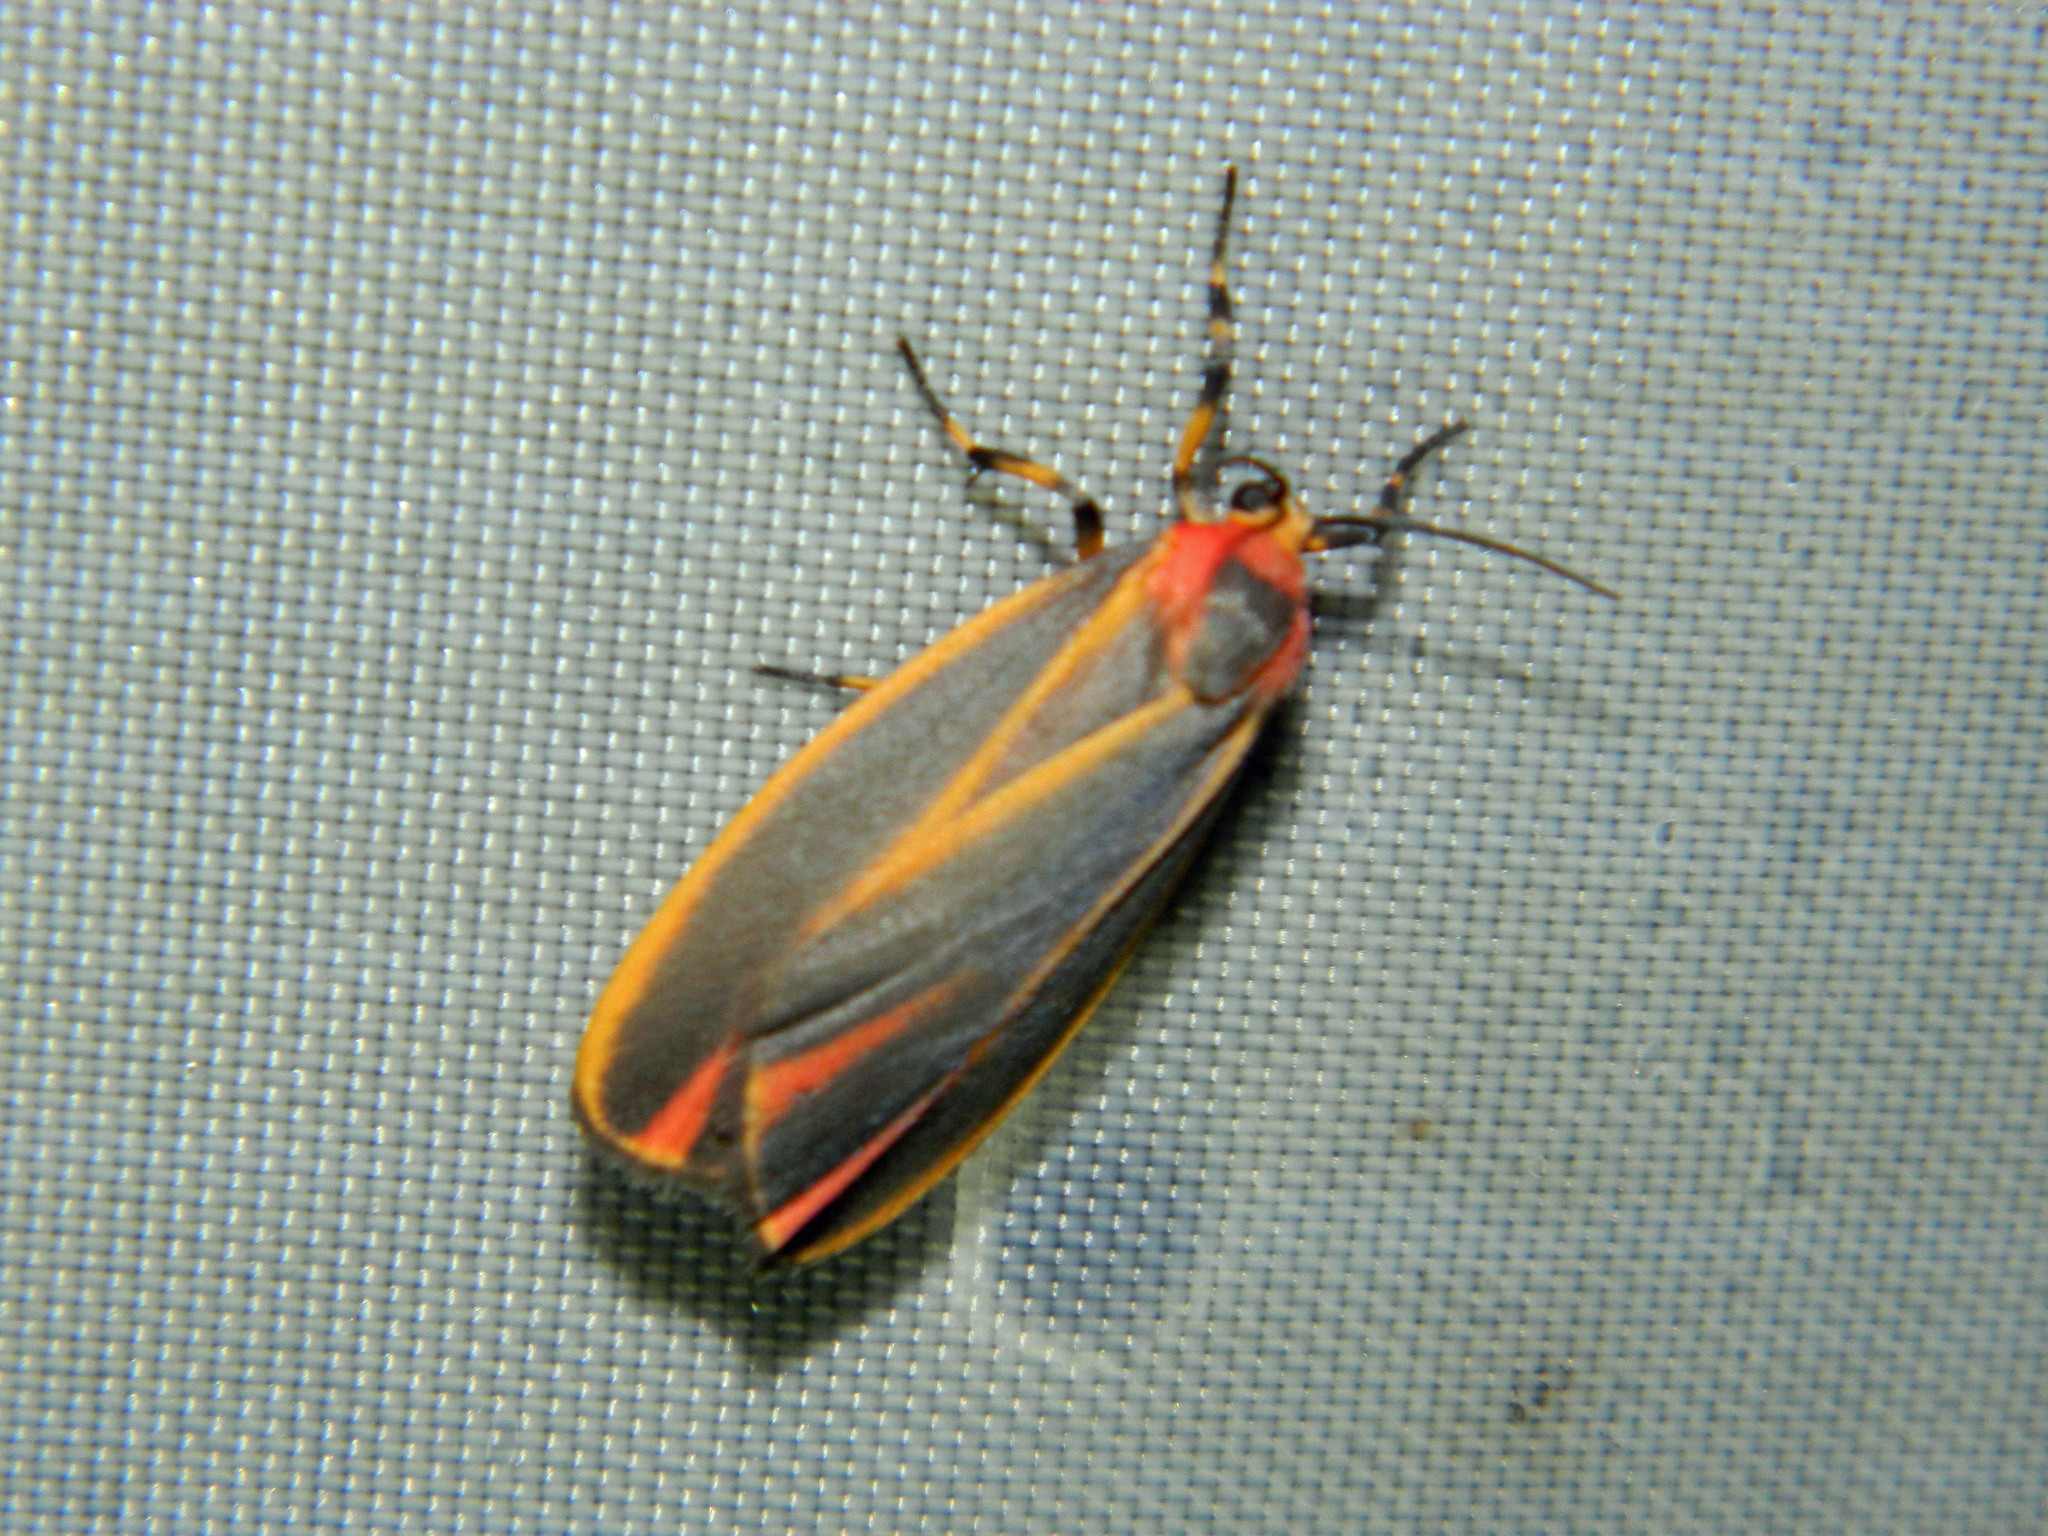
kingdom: Animalia
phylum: Arthropoda
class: Insecta
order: Lepidoptera
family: Erebidae
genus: Hypoprepia
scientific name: Hypoprepia fucosa
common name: Painted lichen moth
